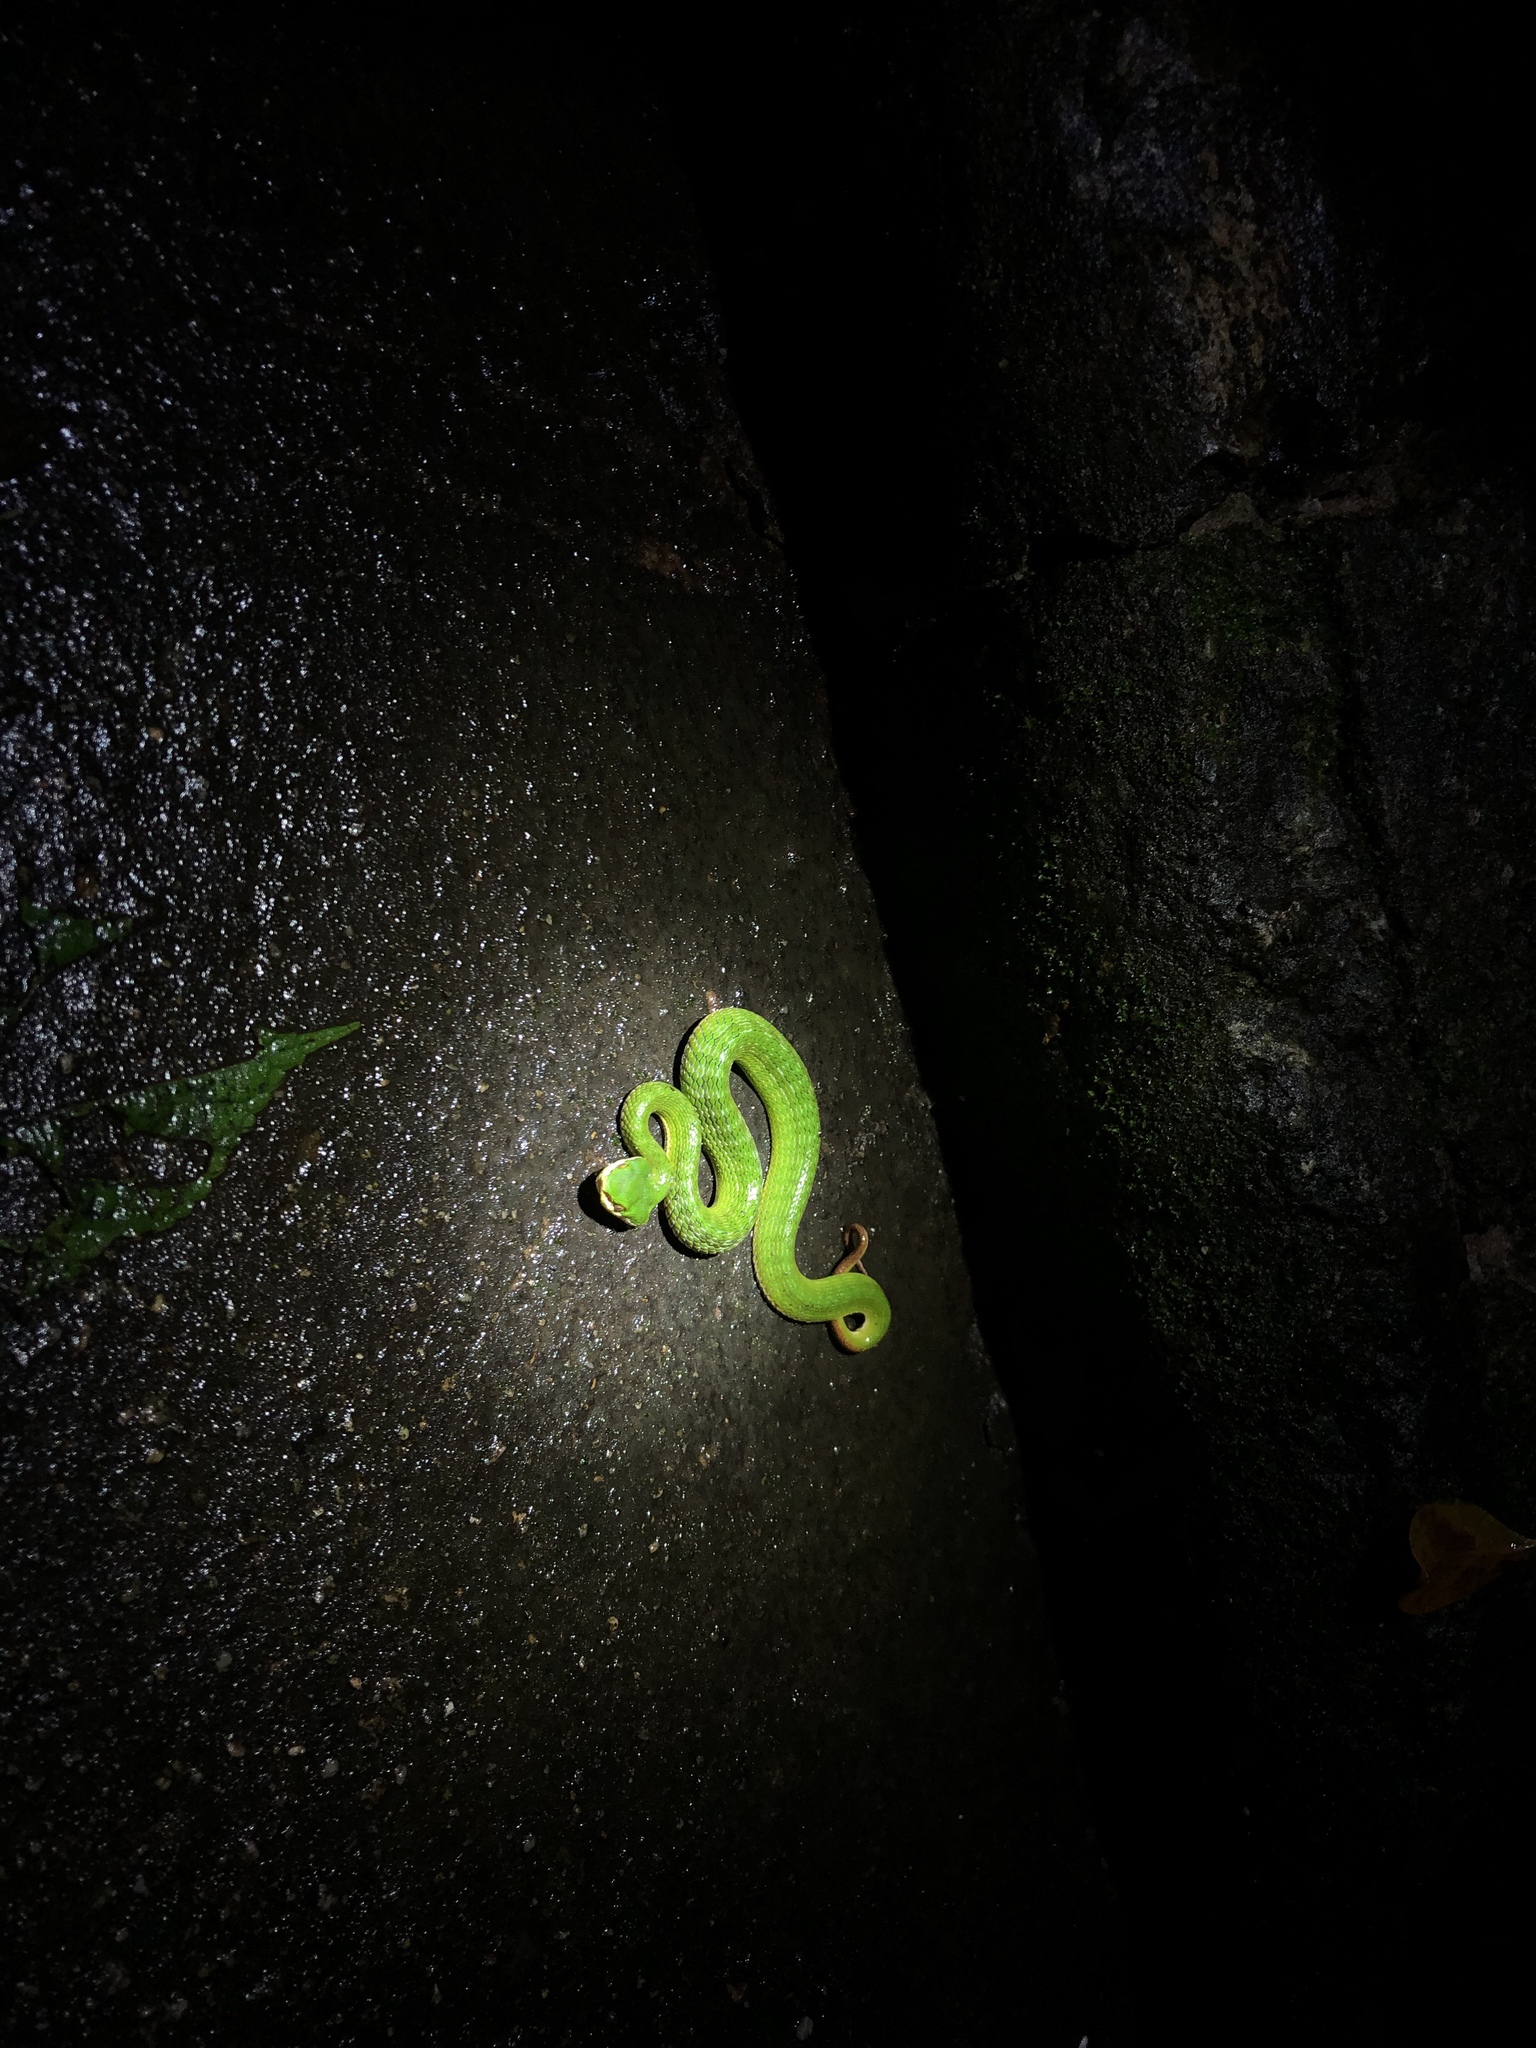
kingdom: Animalia
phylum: Chordata
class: Squamata
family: Viperidae
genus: Trimeresurus
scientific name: Trimeresurus albolabris
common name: White-lipped pitviper
